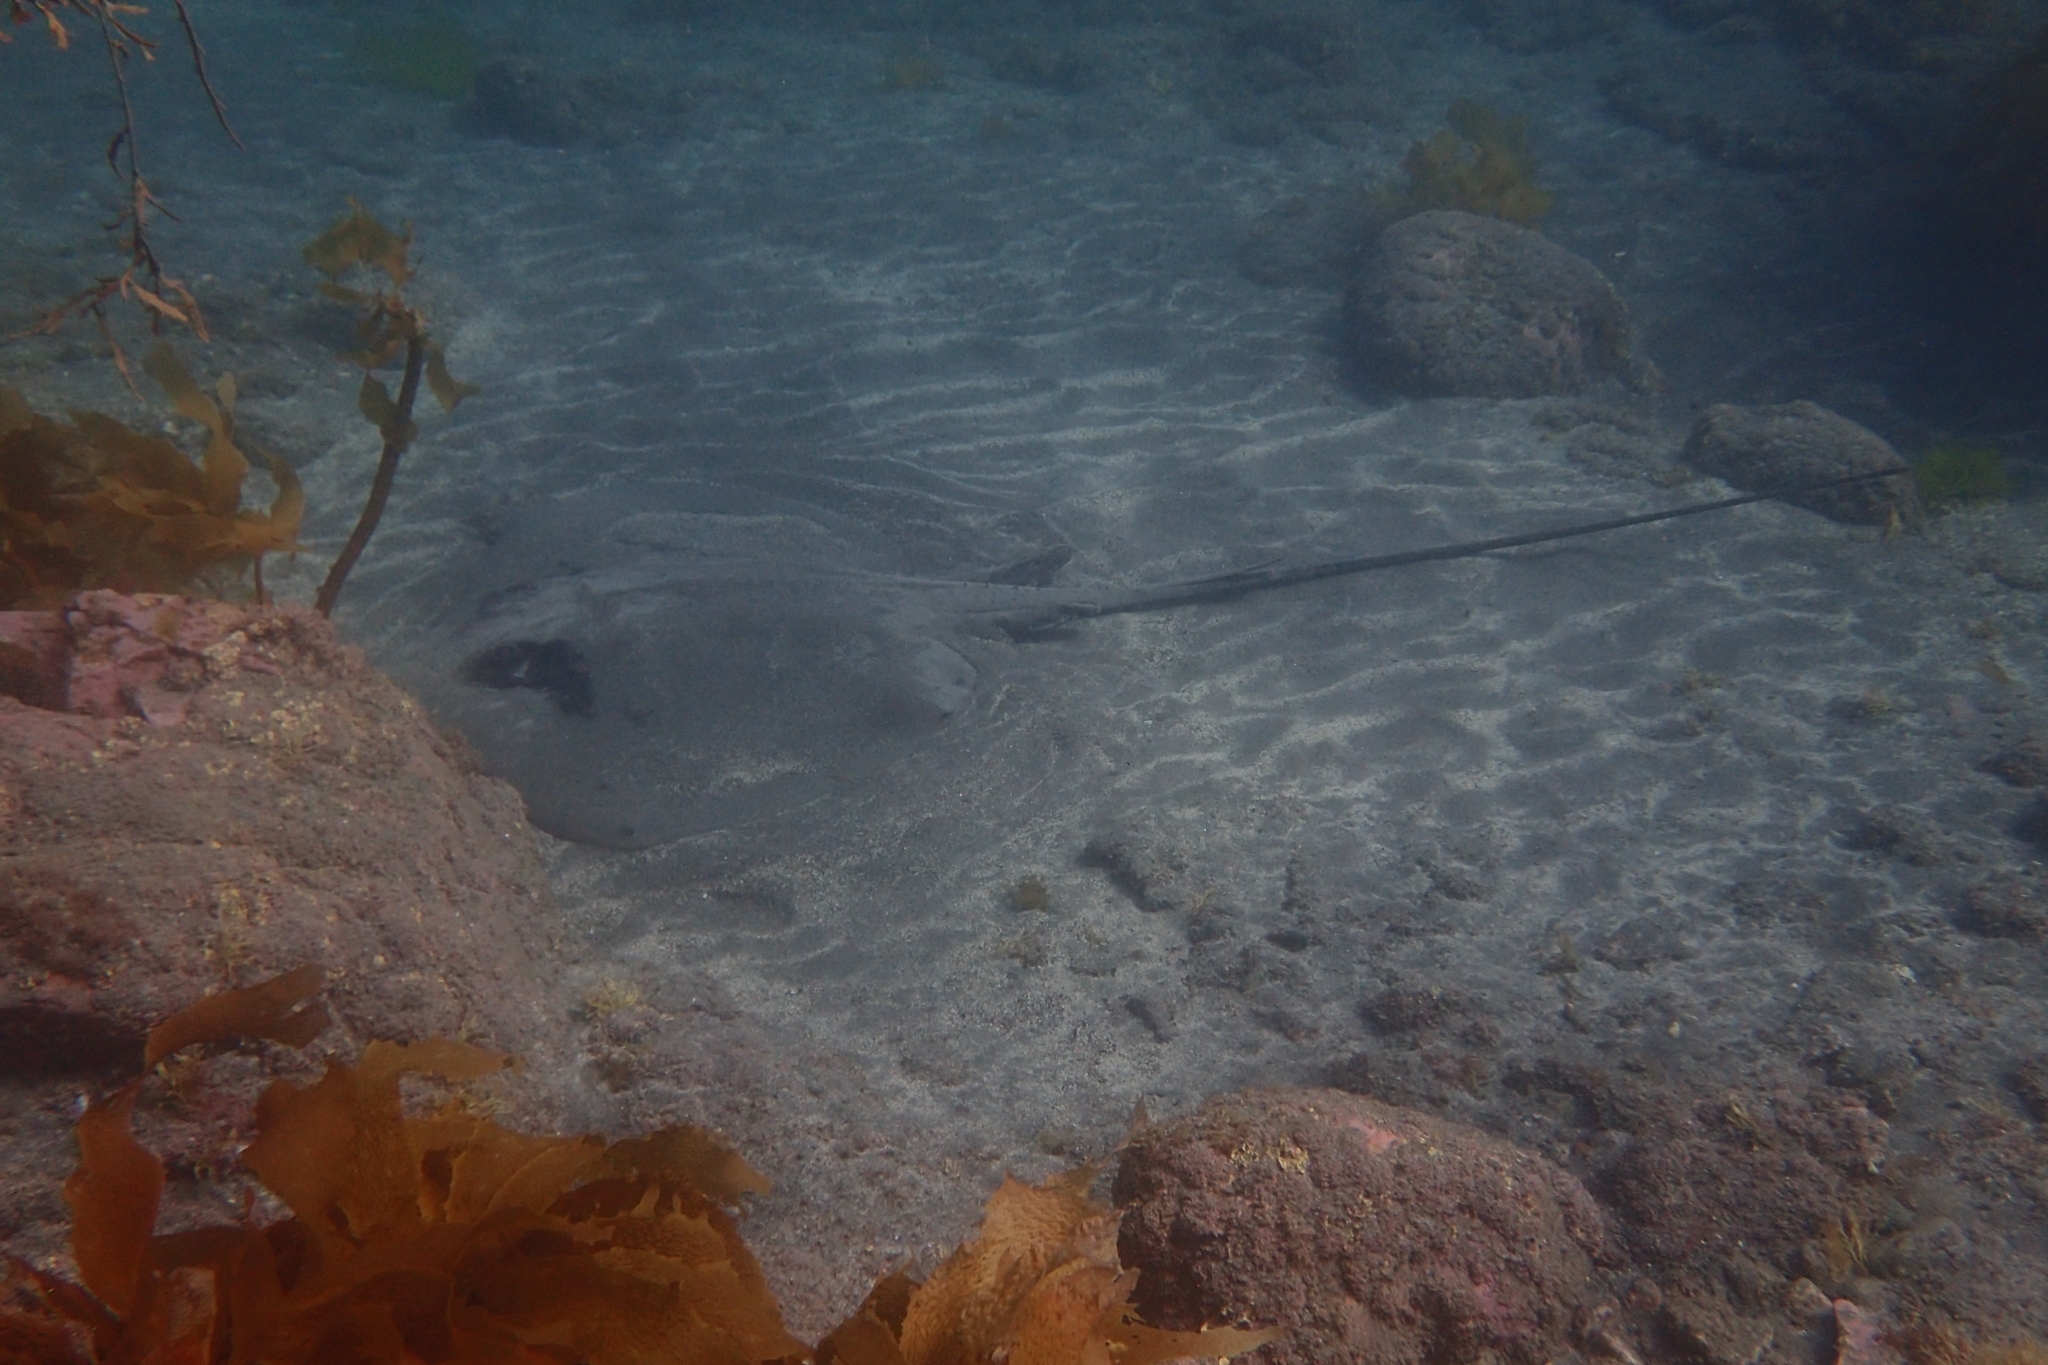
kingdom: Animalia
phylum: Chordata
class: Elasmobranchii
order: Myliobatiformes
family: Dasyatidae
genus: Bathytoshia
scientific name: Bathytoshia lata
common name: Brown stingray
